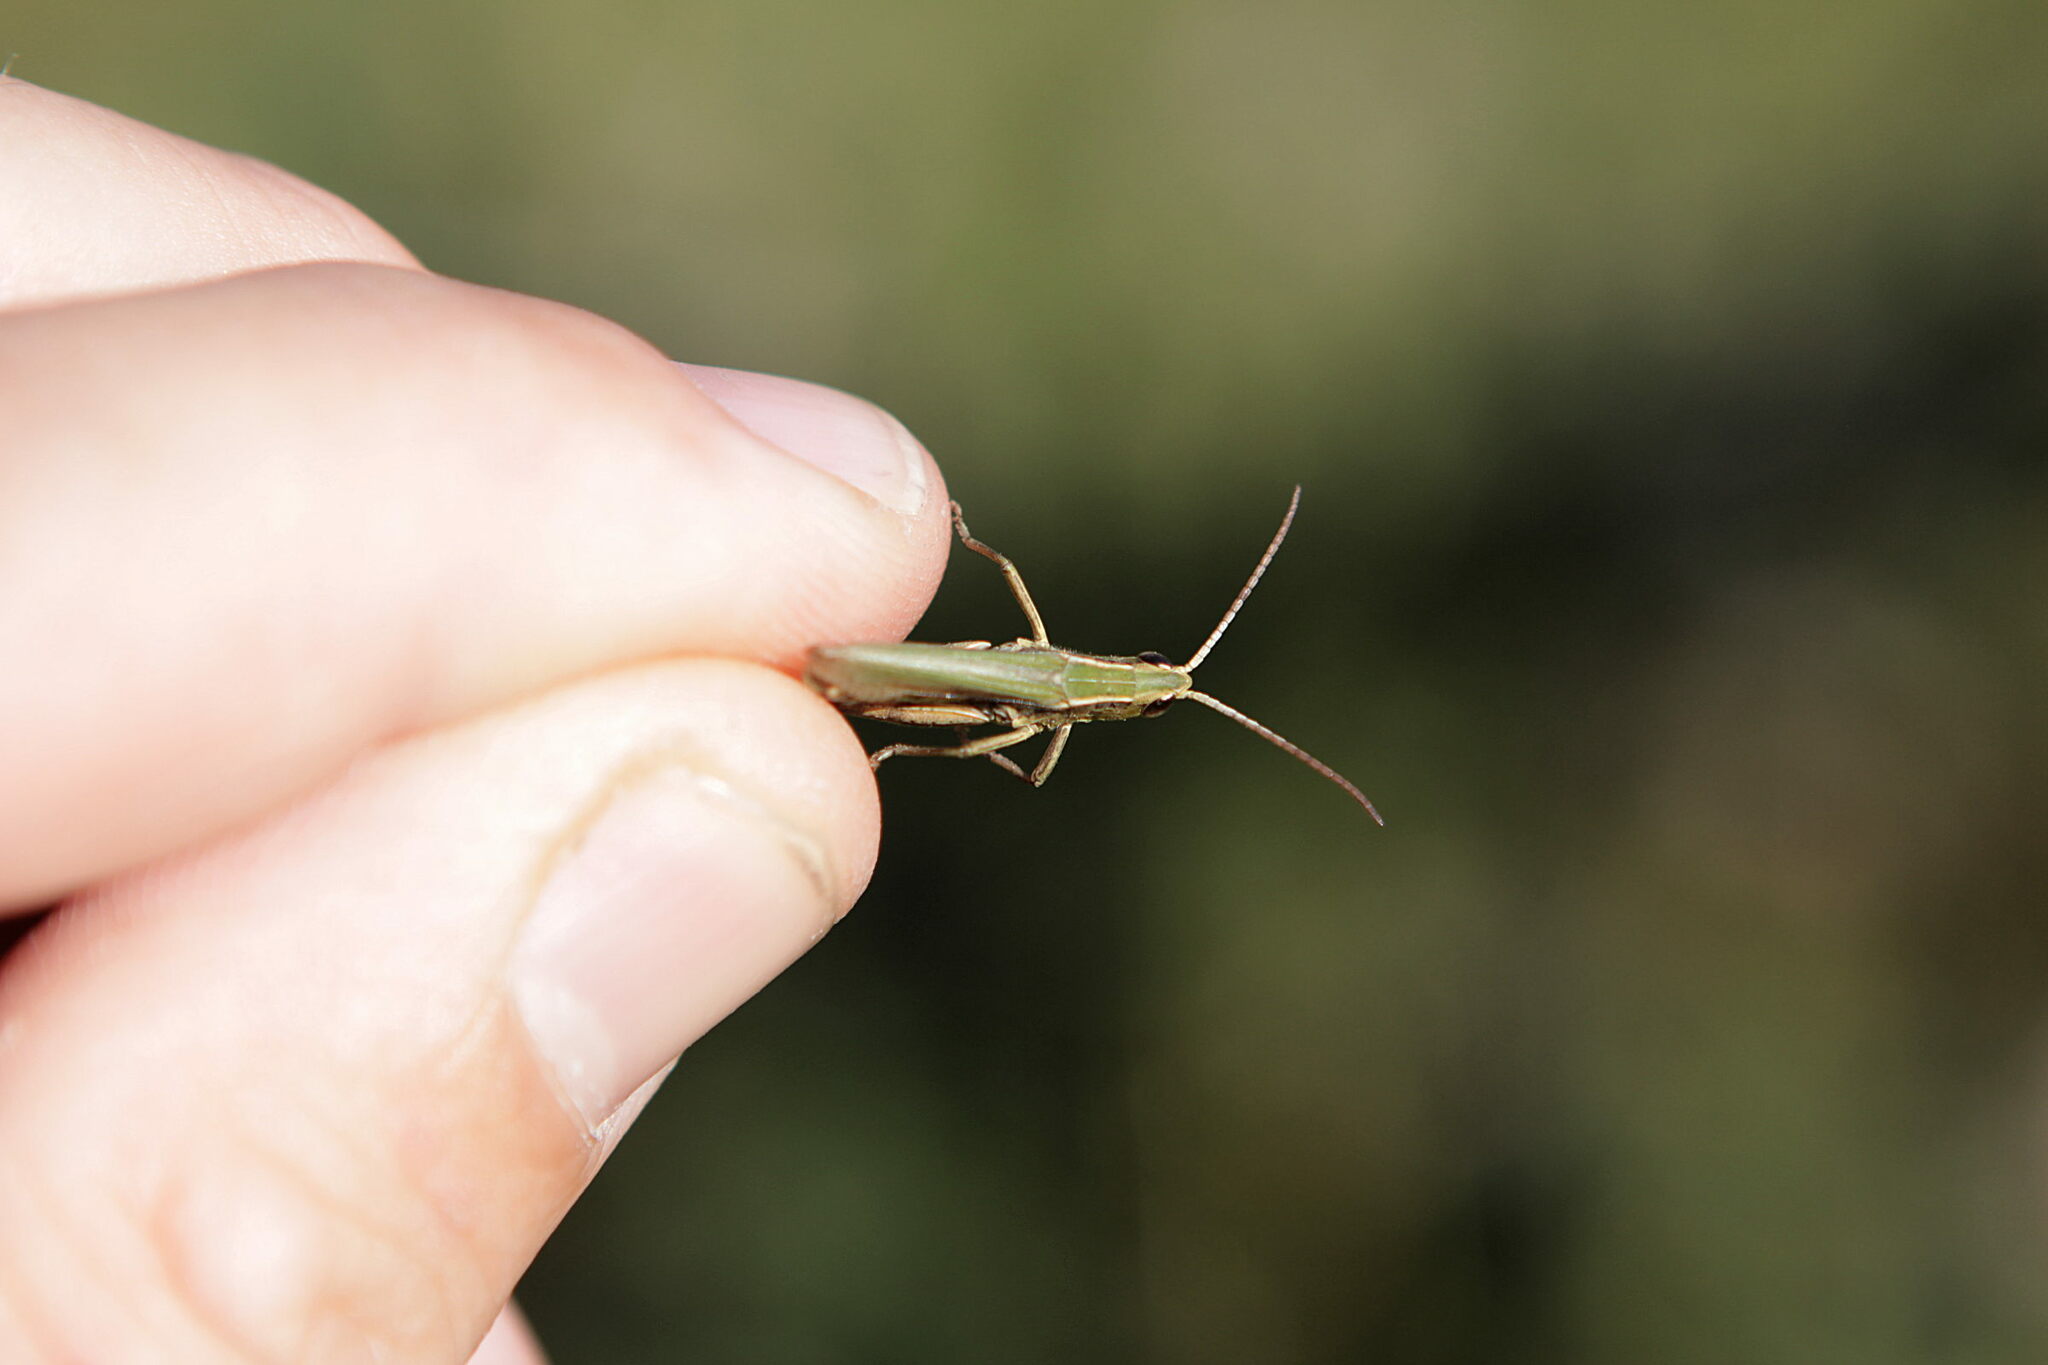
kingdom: Animalia
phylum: Arthropoda
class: Insecta
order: Orthoptera
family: Acrididae
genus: Chorthippus
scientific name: Chorthippus albomarginatus
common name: Lesser marsh grasshopper
